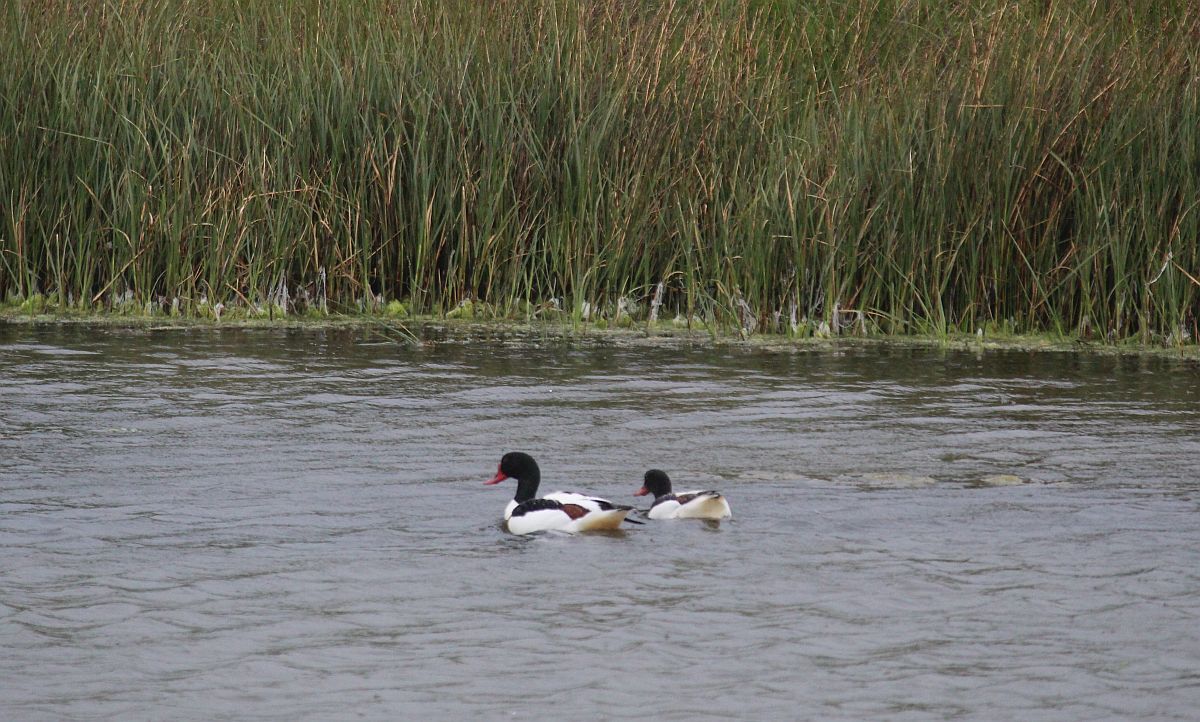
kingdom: Animalia
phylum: Chordata
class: Aves
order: Anseriformes
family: Anatidae
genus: Tadorna
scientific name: Tadorna tadorna
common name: Common shelduck
